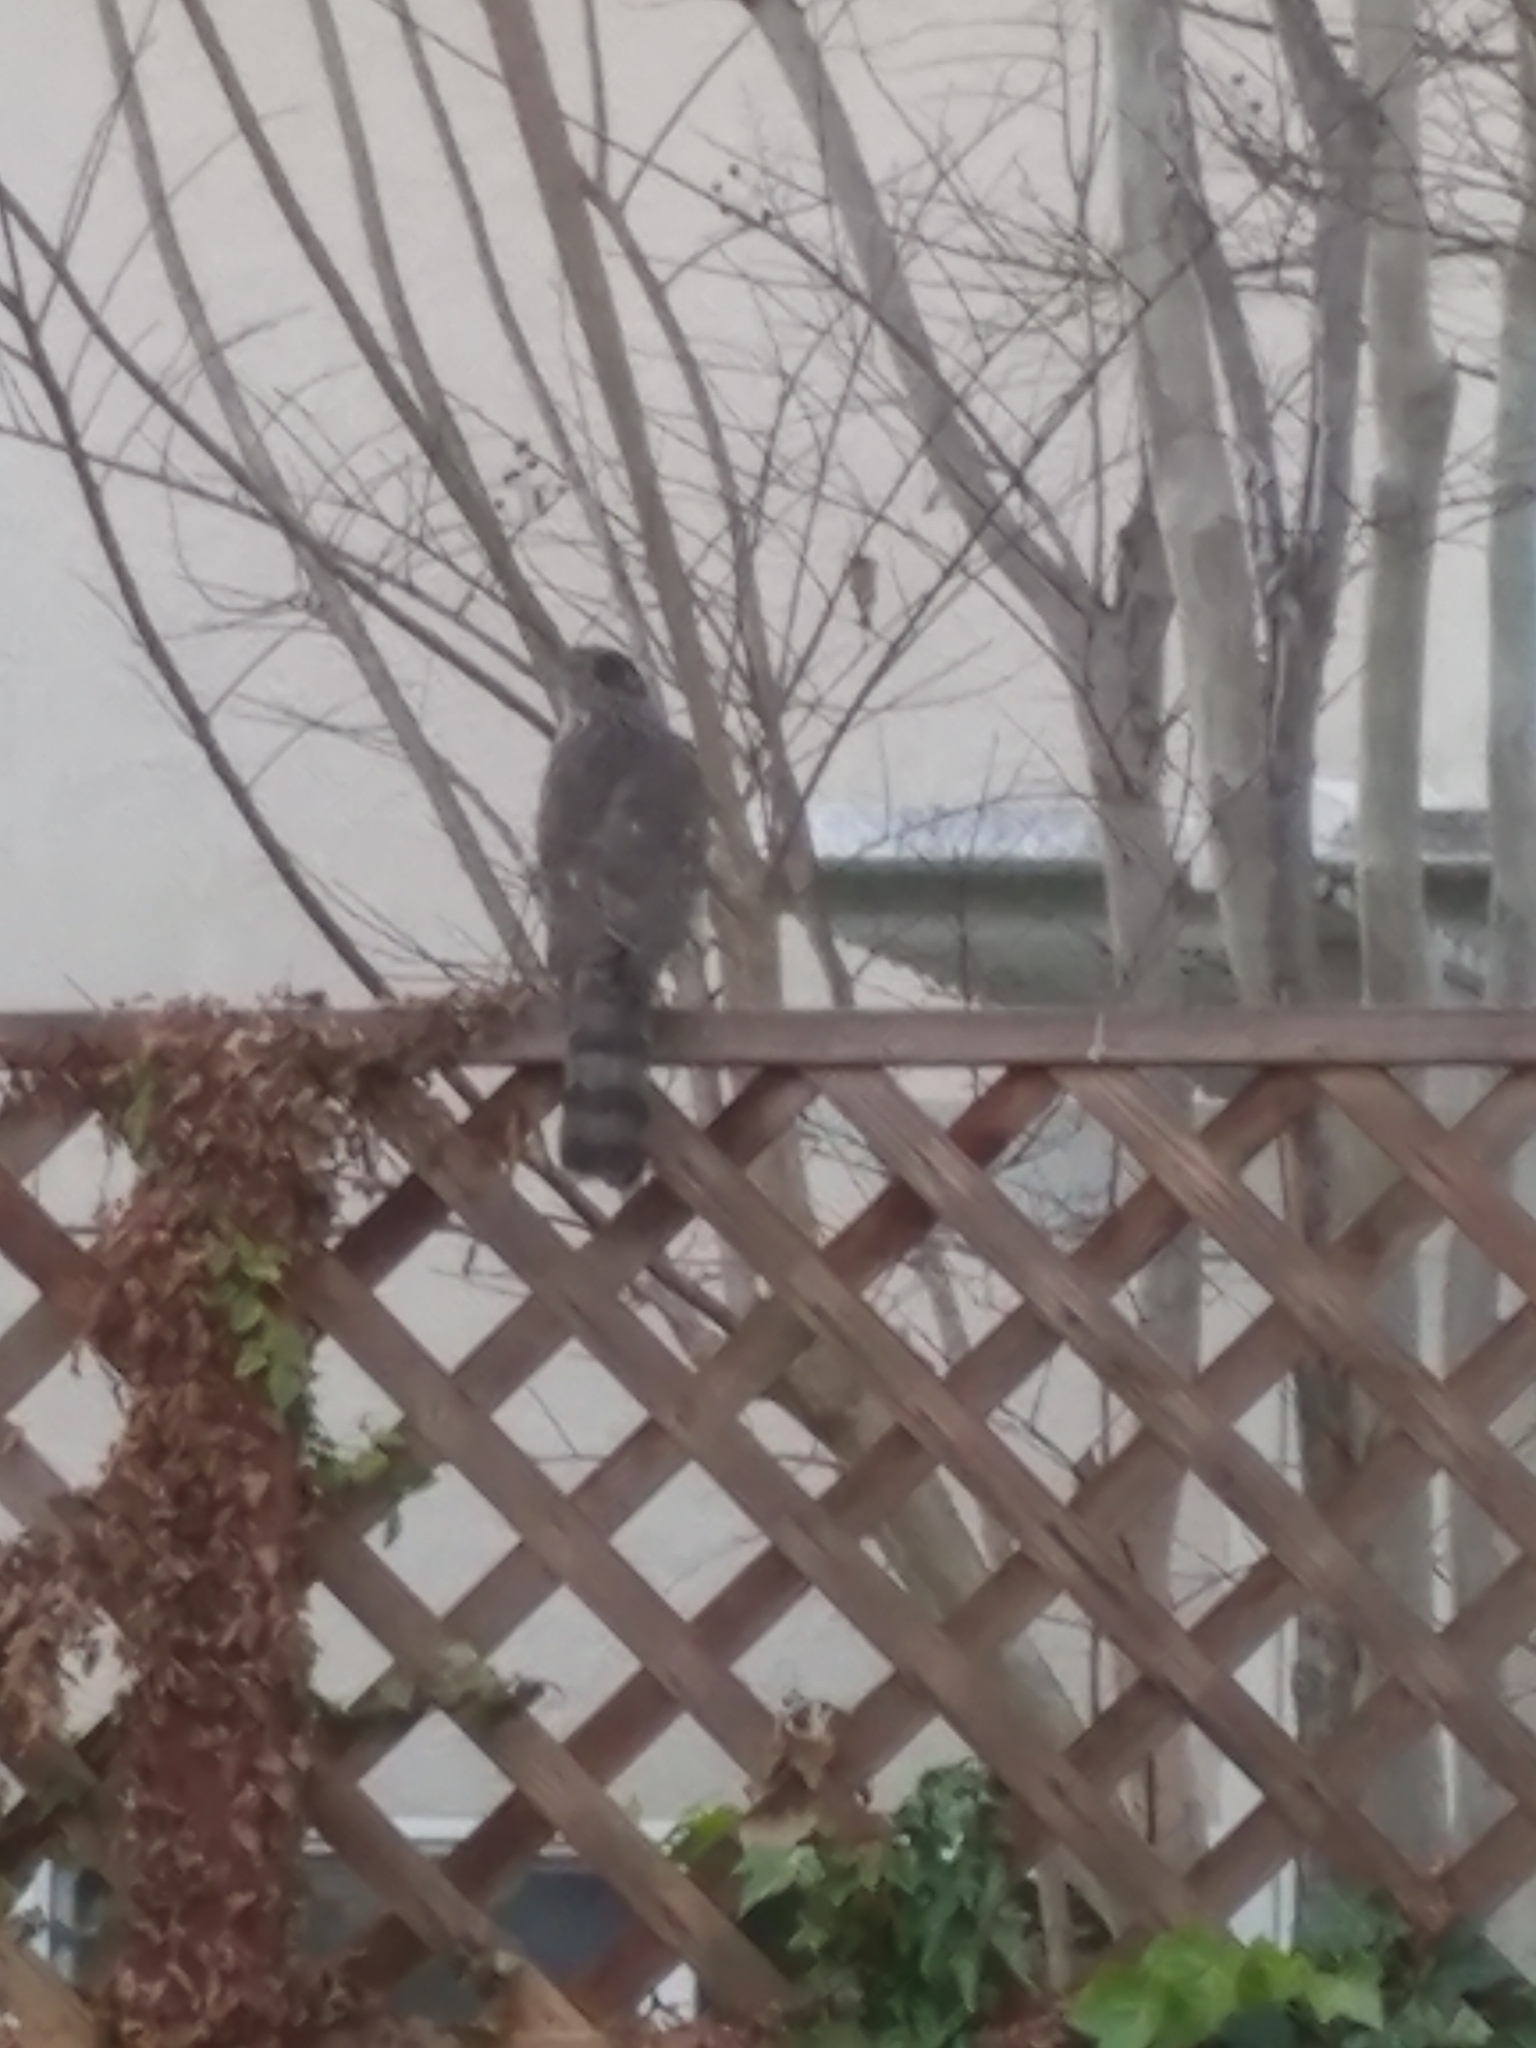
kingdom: Animalia
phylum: Chordata
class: Aves
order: Accipitriformes
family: Accipitridae
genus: Accipiter
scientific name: Accipiter cooperii
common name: Cooper's hawk
